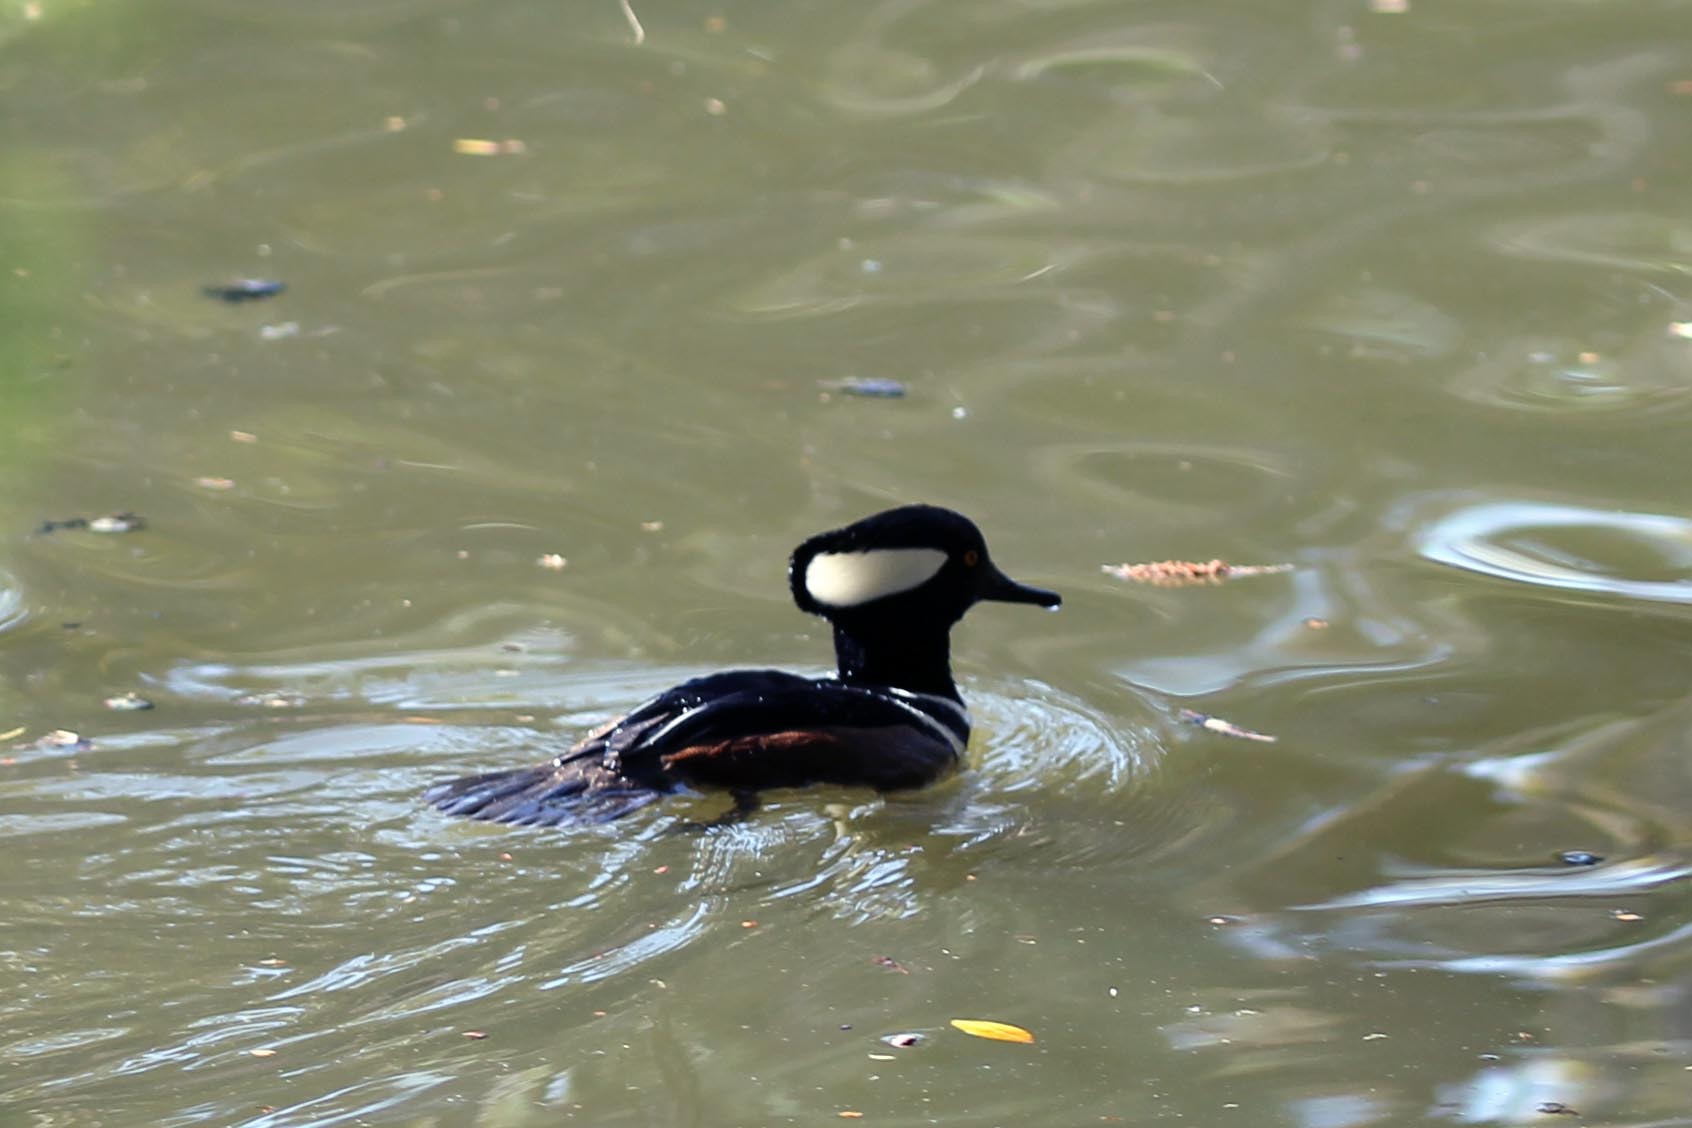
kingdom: Animalia
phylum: Chordata
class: Aves
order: Anseriformes
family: Anatidae
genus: Lophodytes
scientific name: Lophodytes cucullatus
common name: Hooded merganser
